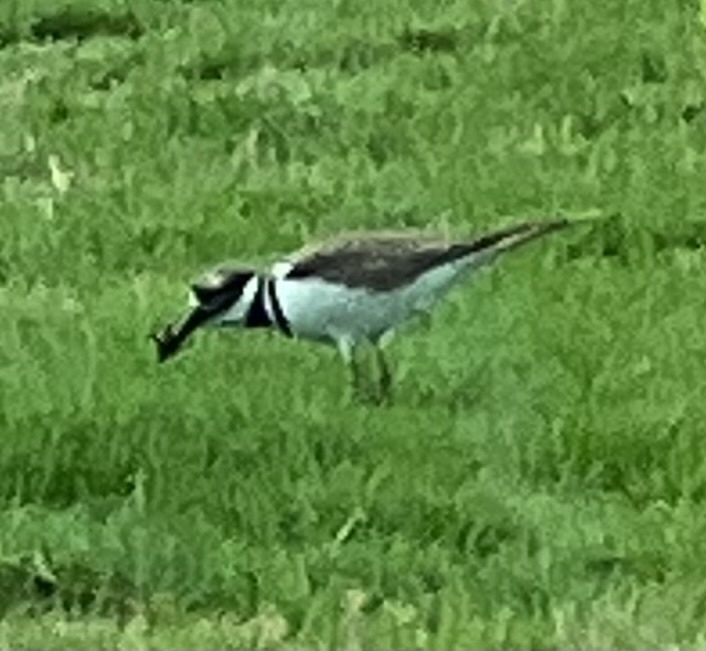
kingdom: Animalia
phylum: Chordata
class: Aves
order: Charadriiformes
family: Charadriidae
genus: Charadrius
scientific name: Charadrius vociferus
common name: Killdeer
